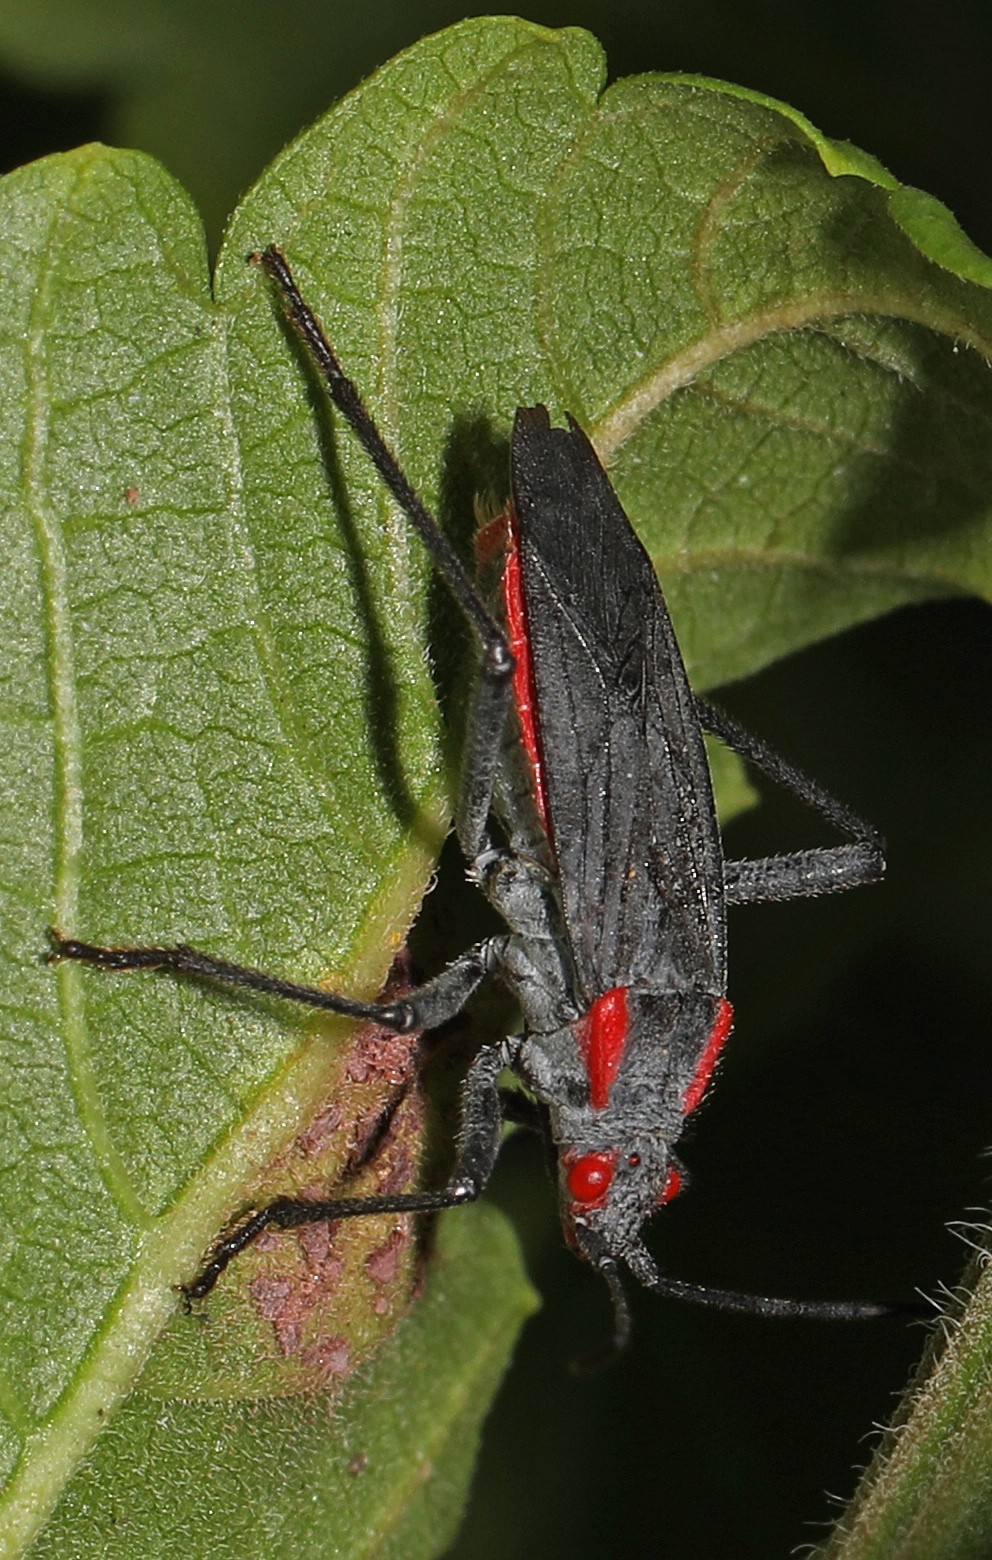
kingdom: Animalia
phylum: Arthropoda
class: Insecta
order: Hemiptera
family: Rhopalidae
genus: Jadera
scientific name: Jadera haematoloma
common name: Red-shouldered bug
